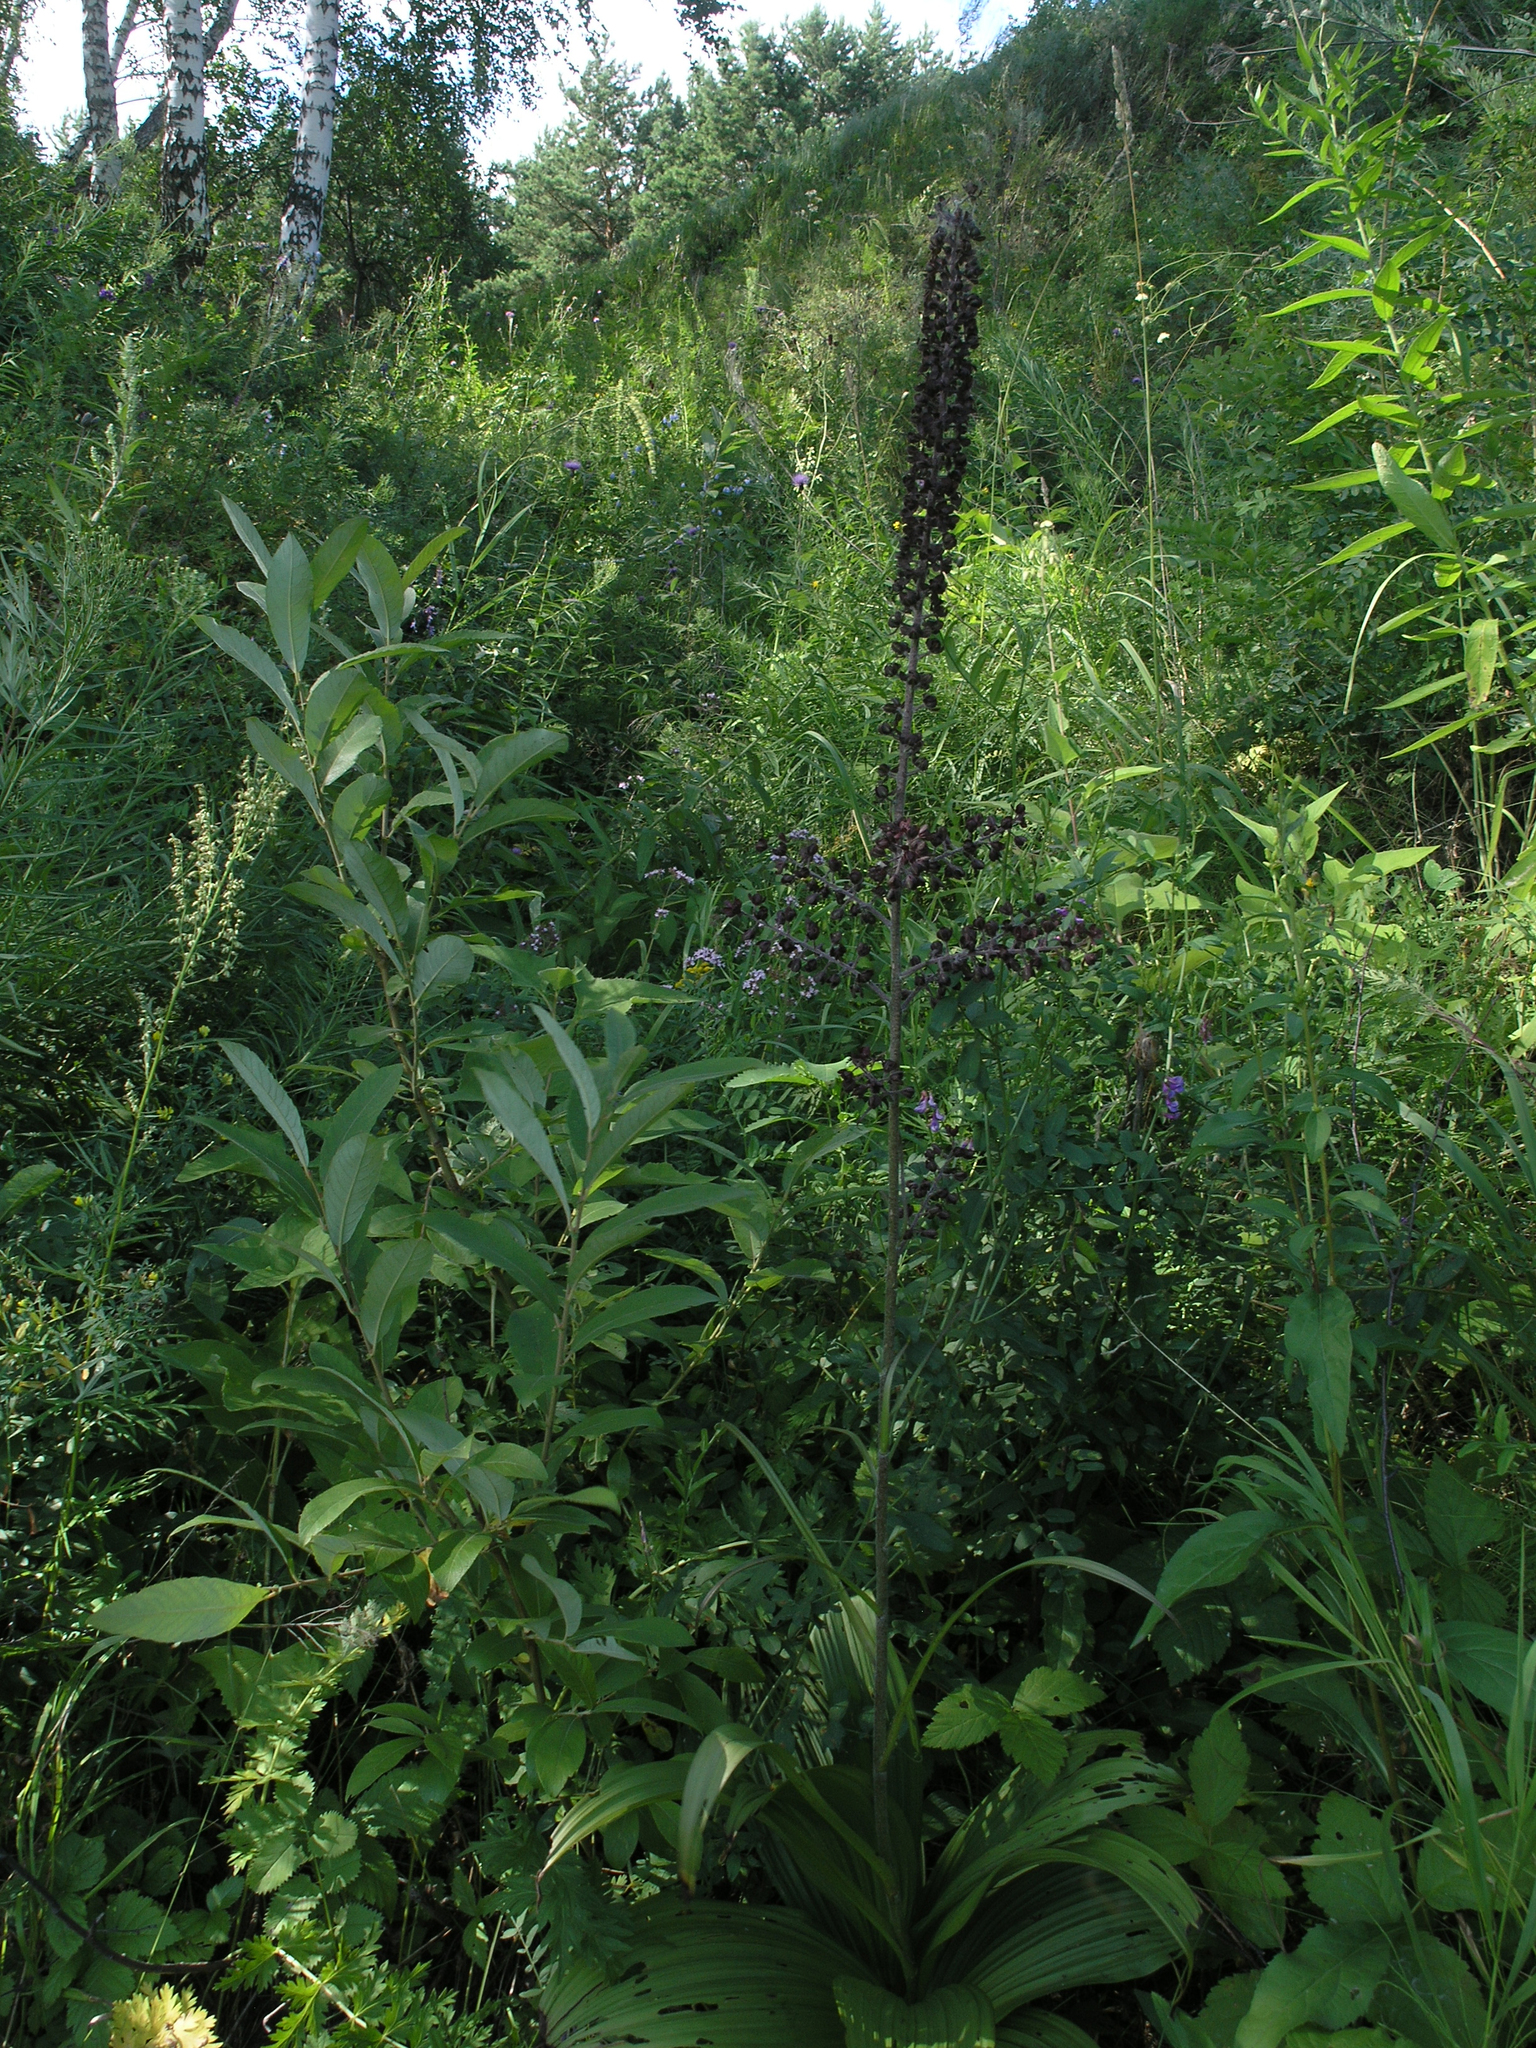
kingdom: Plantae
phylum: Tracheophyta
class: Liliopsida
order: Liliales
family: Melanthiaceae
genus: Veratrum
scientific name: Veratrum nigrum
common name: Black veratrum
